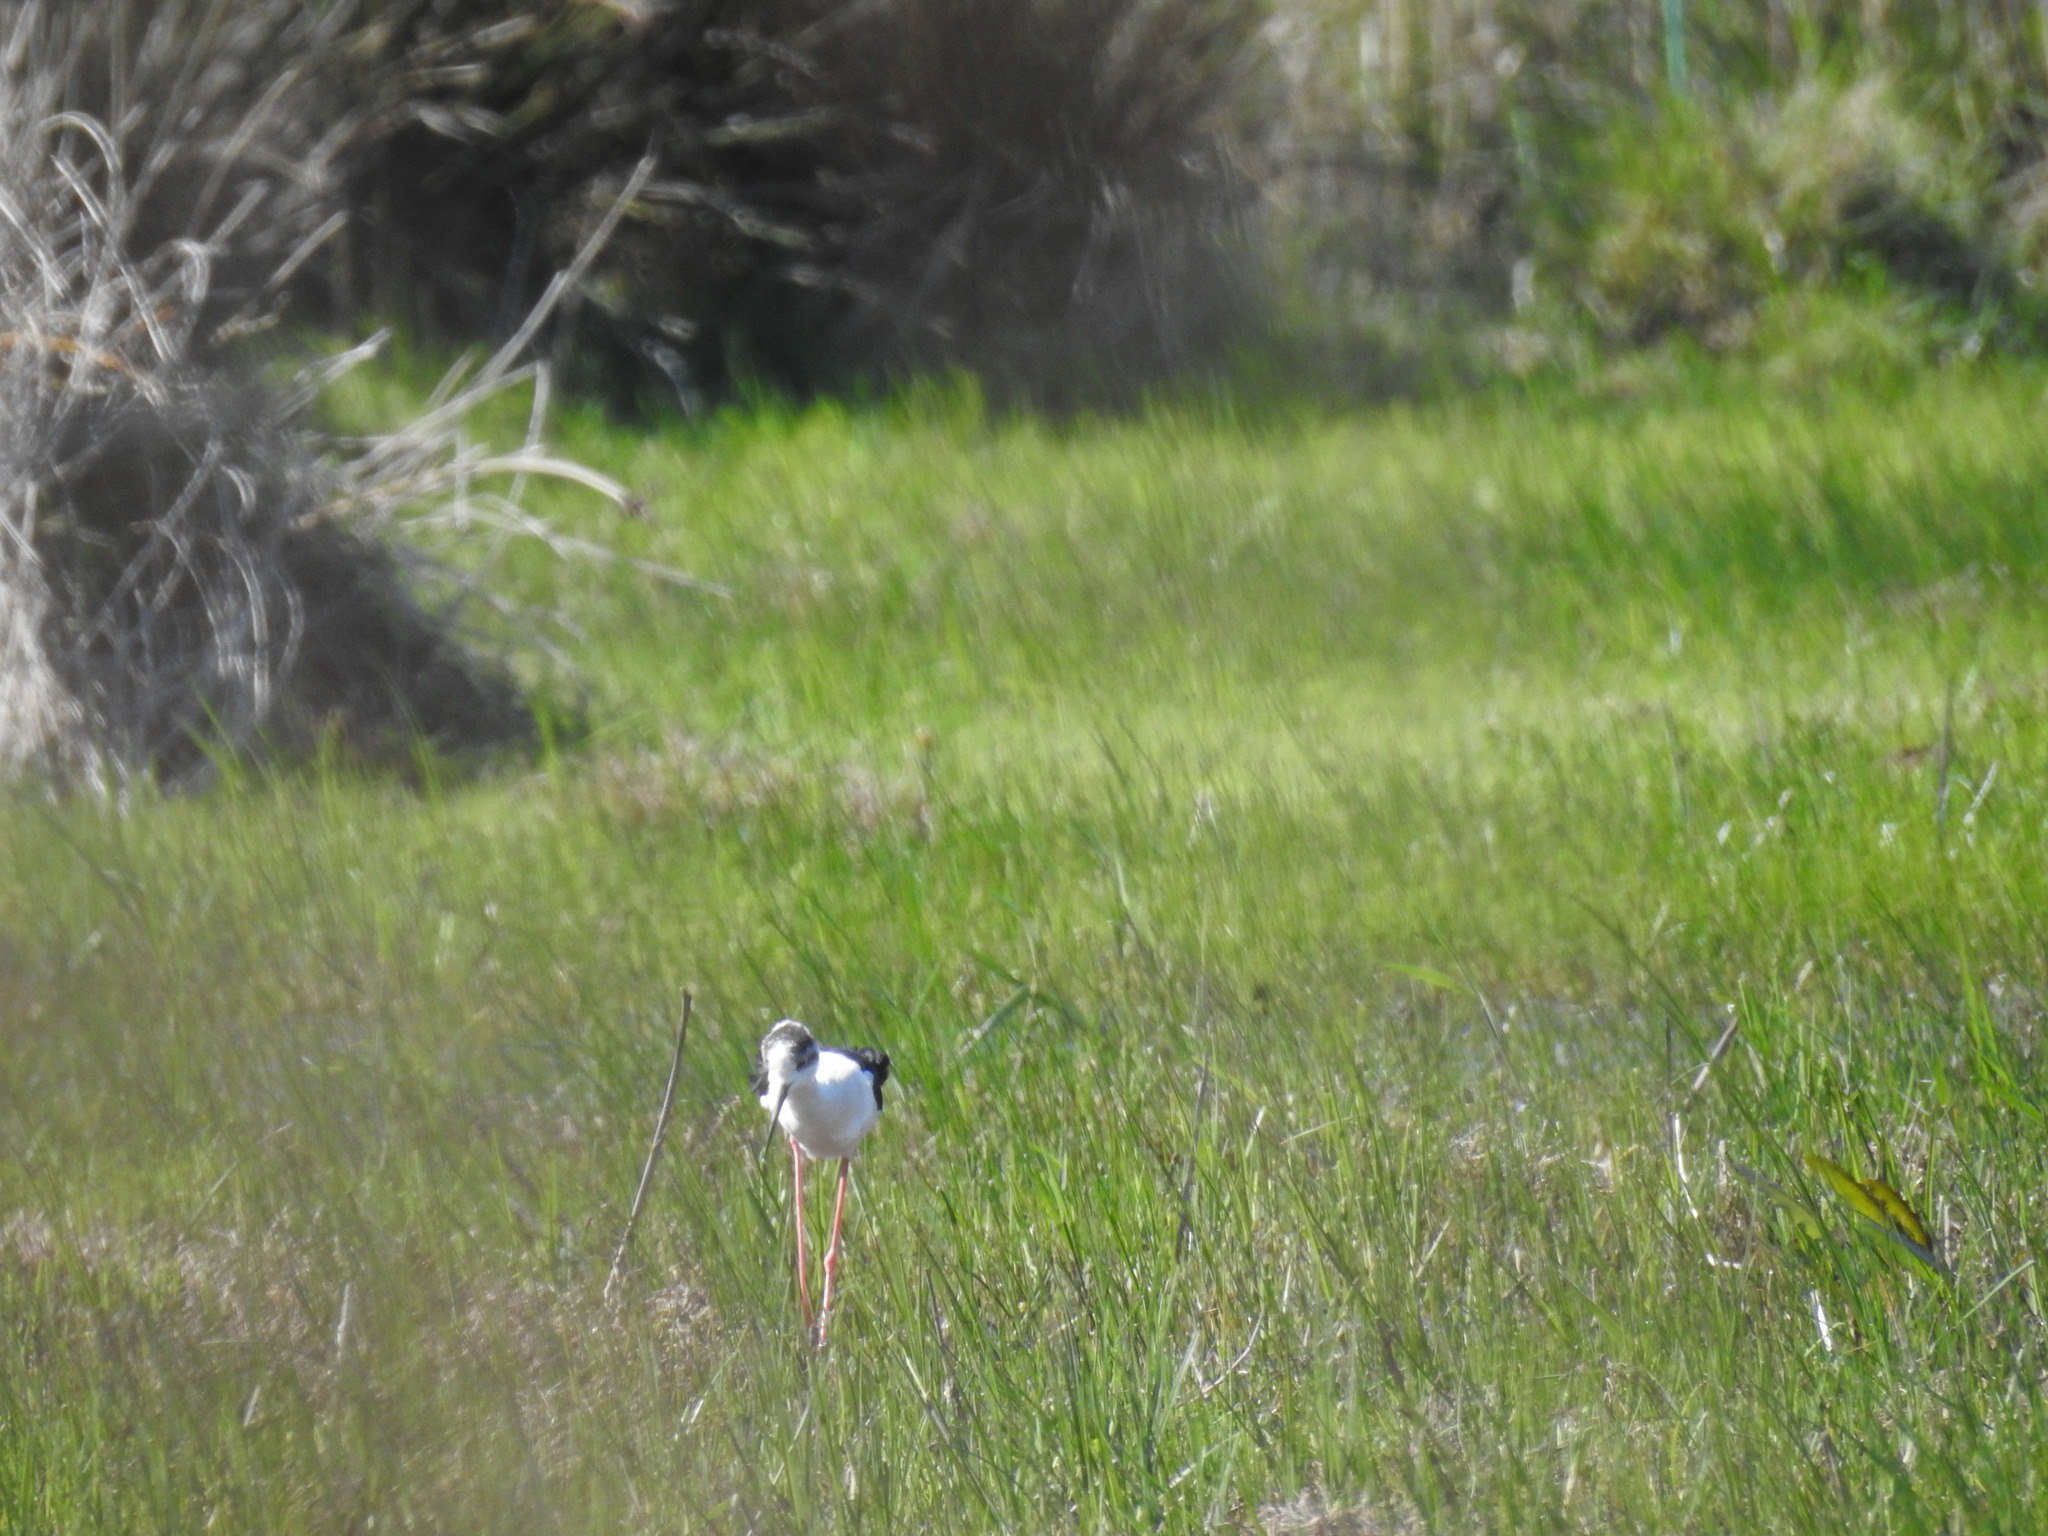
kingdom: Animalia
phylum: Chordata
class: Aves
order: Charadriiformes
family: Recurvirostridae
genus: Himantopus
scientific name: Himantopus himantopus
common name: Black-winged stilt
